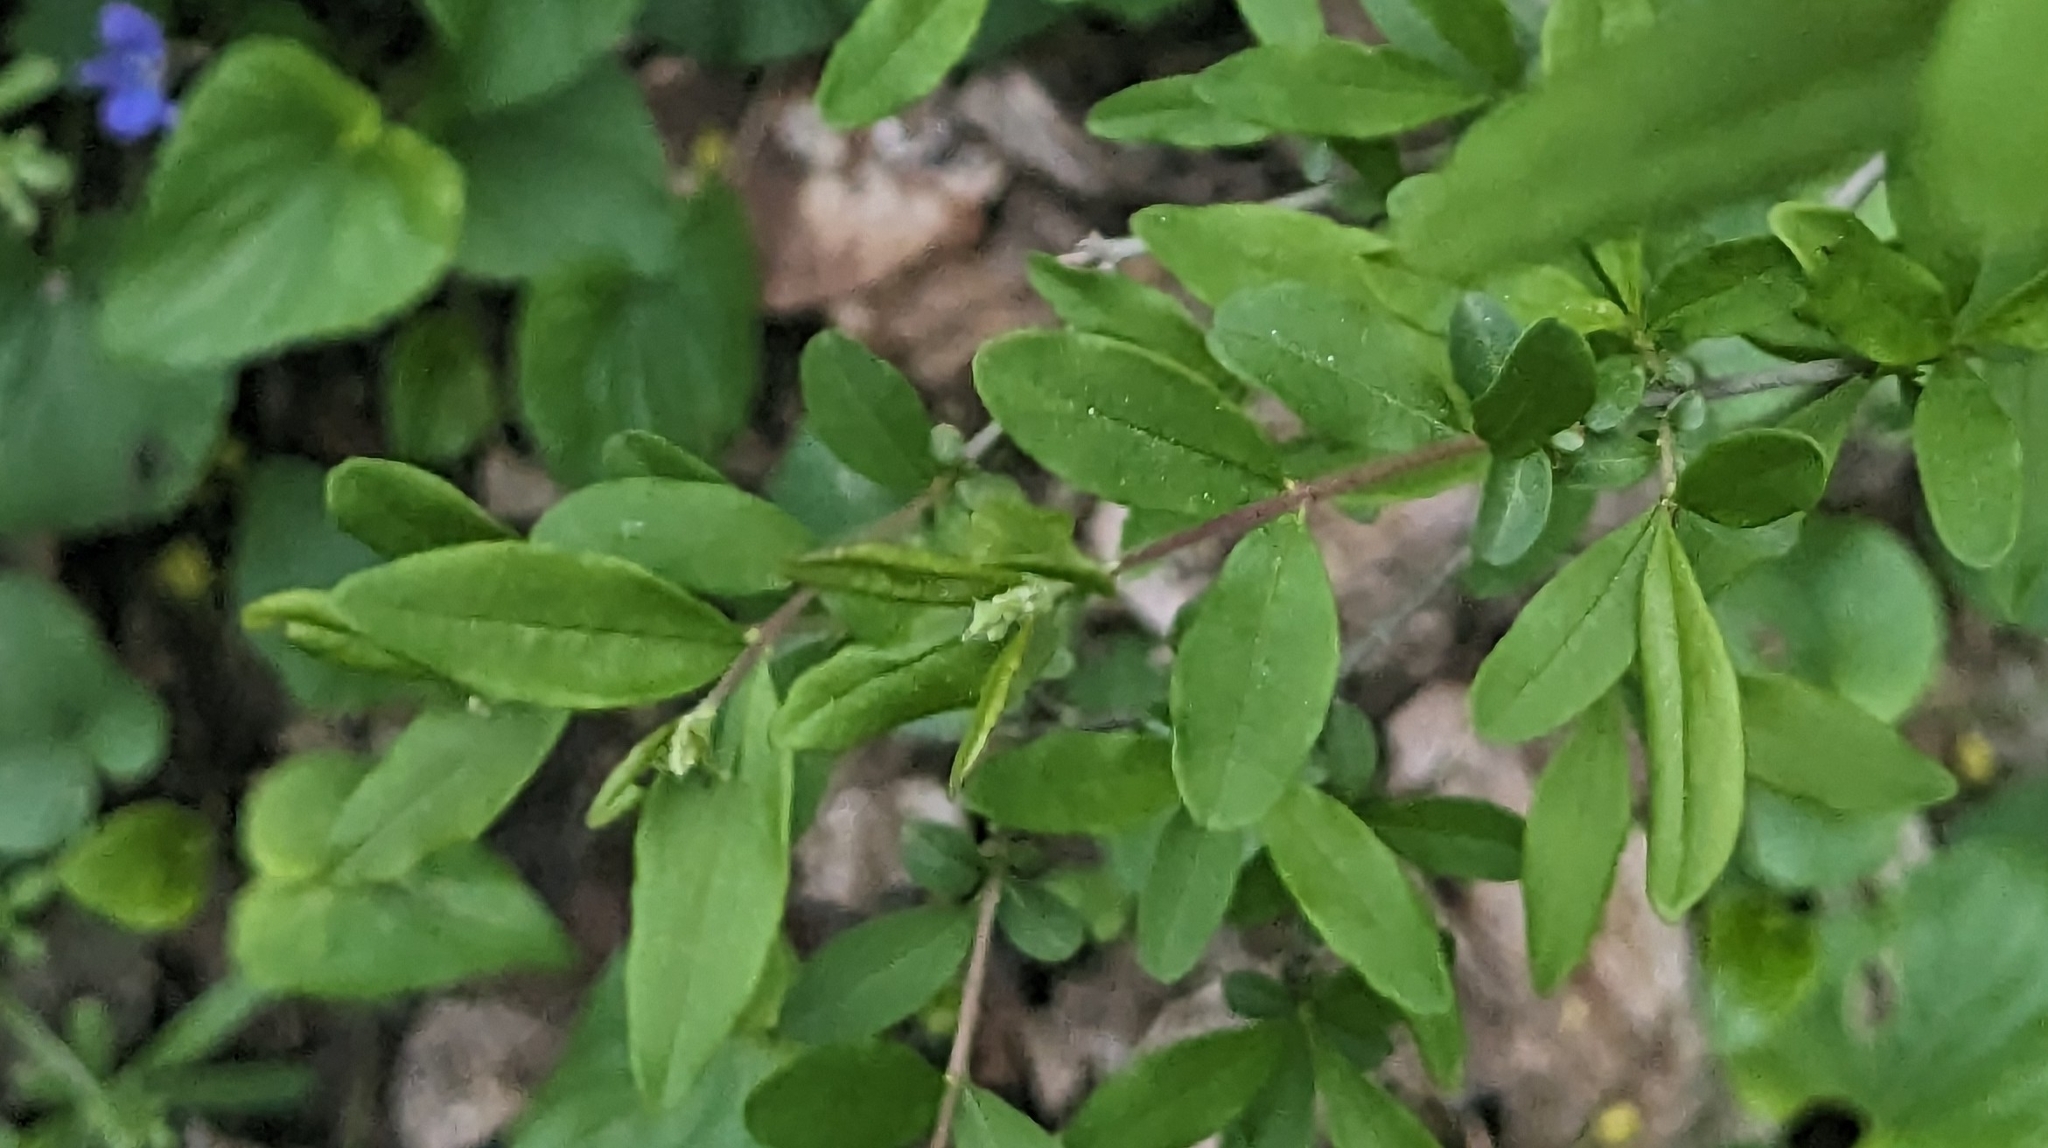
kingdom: Plantae
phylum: Tracheophyta
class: Magnoliopsida
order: Lamiales
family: Oleaceae
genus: Ligustrum
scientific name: Ligustrum obtusifolium
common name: Border privet
